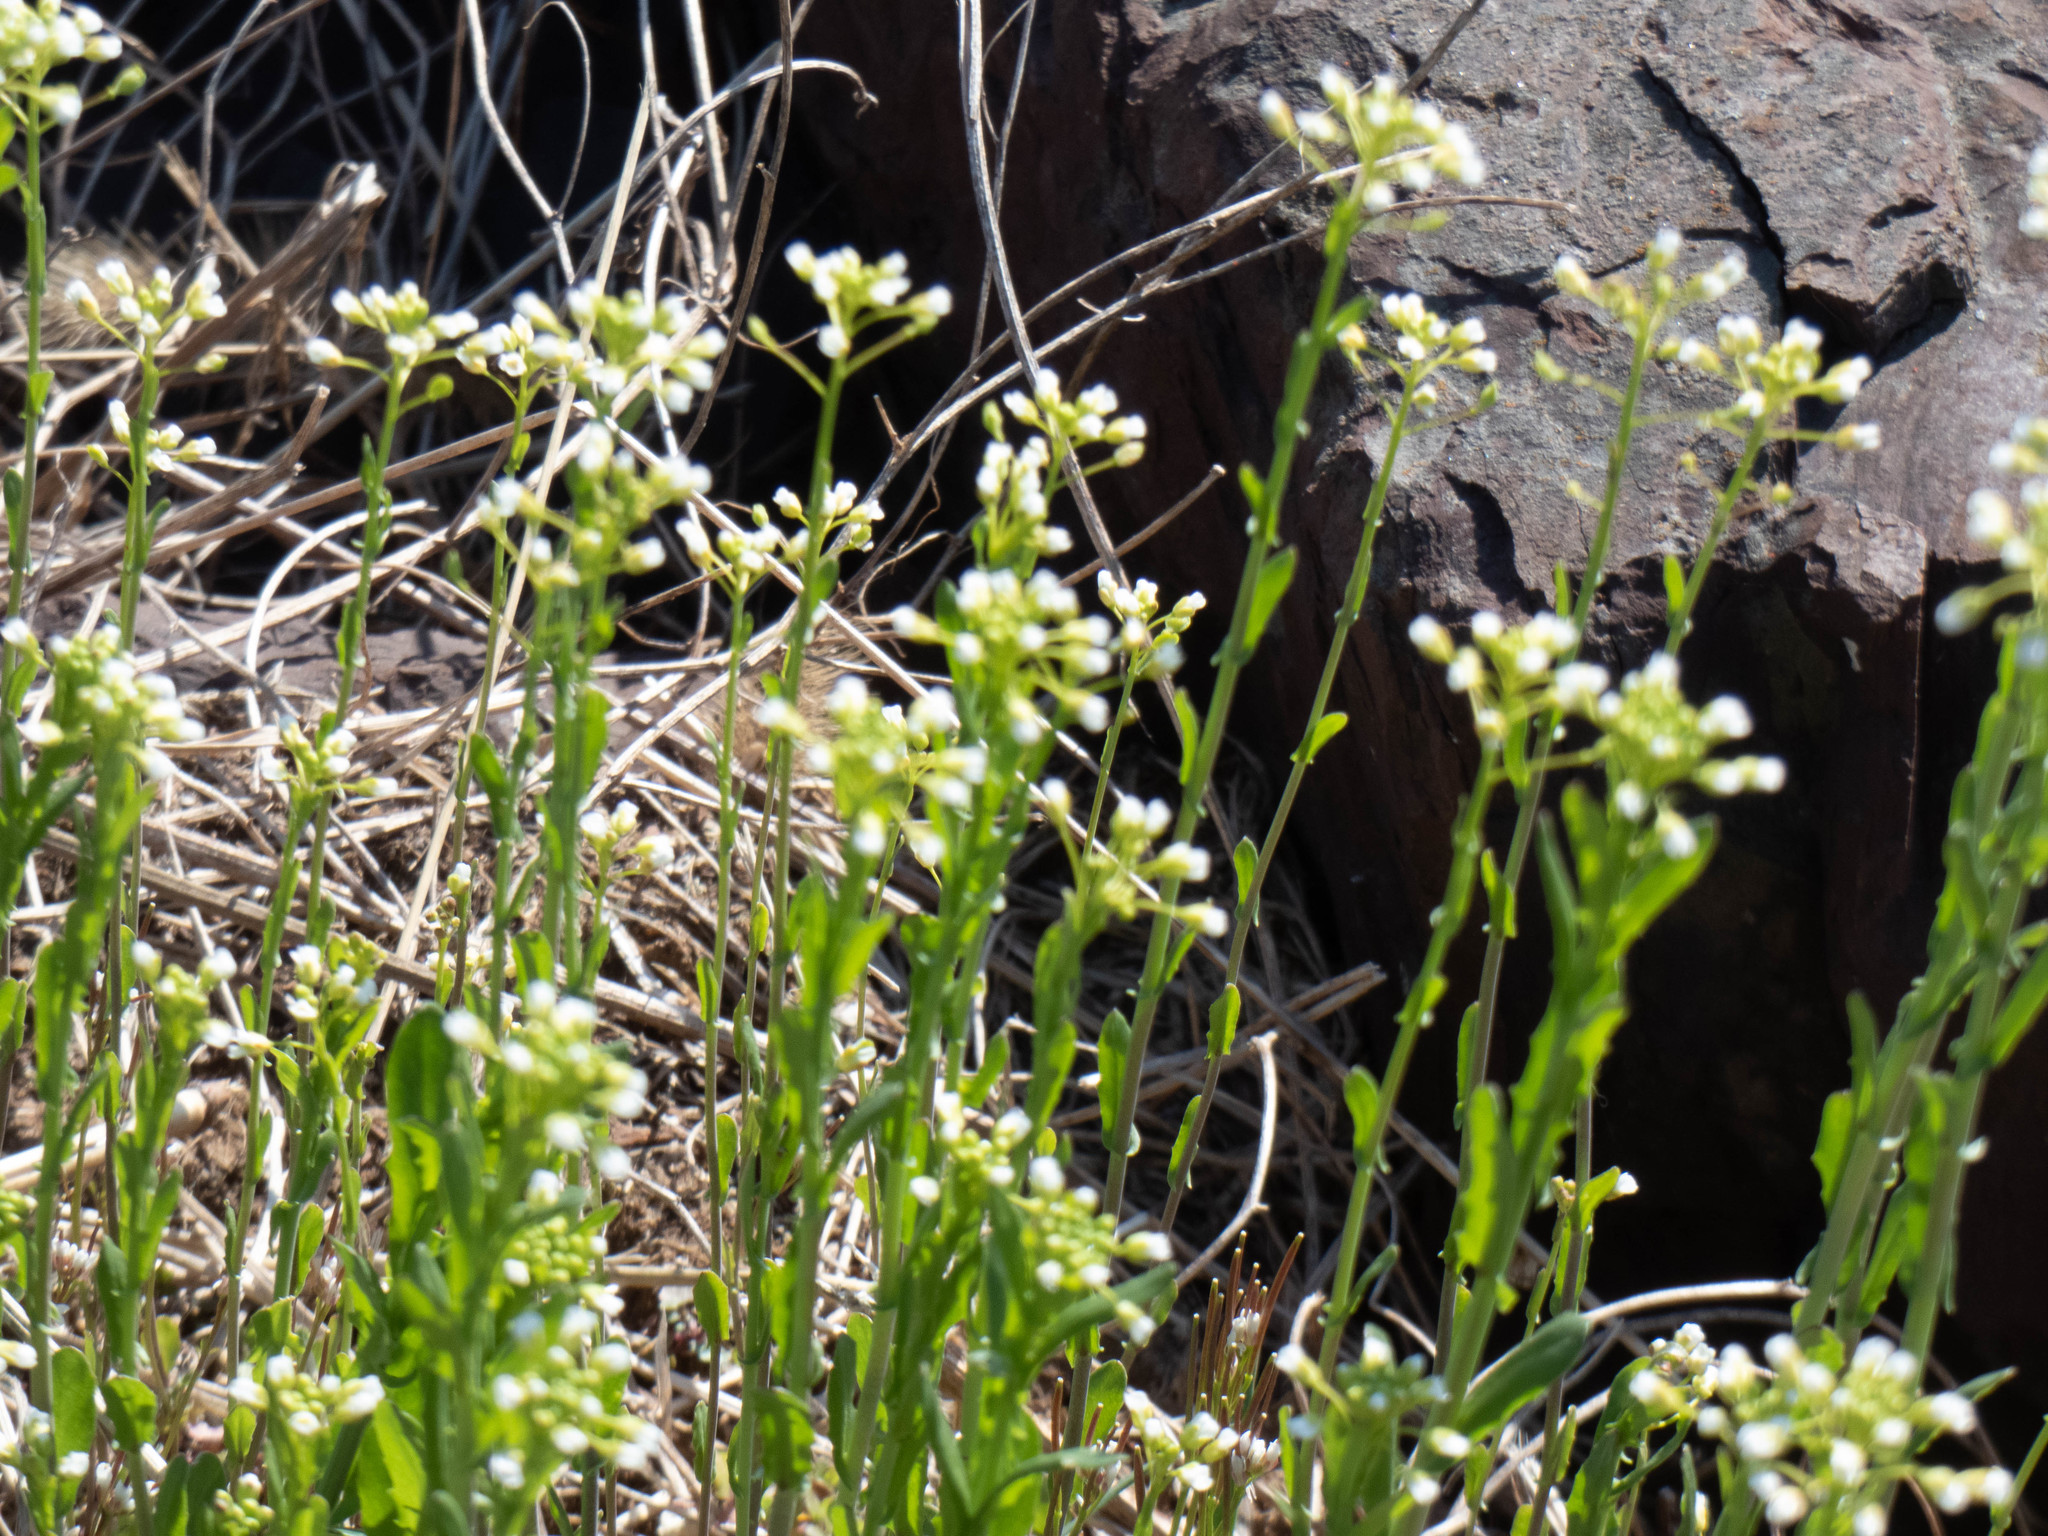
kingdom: Plantae
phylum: Tracheophyta
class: Magnoliopsida
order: Brassicales
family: Brassicaceae
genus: Mummenhoffia
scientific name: Mummenhoffia alliacea
